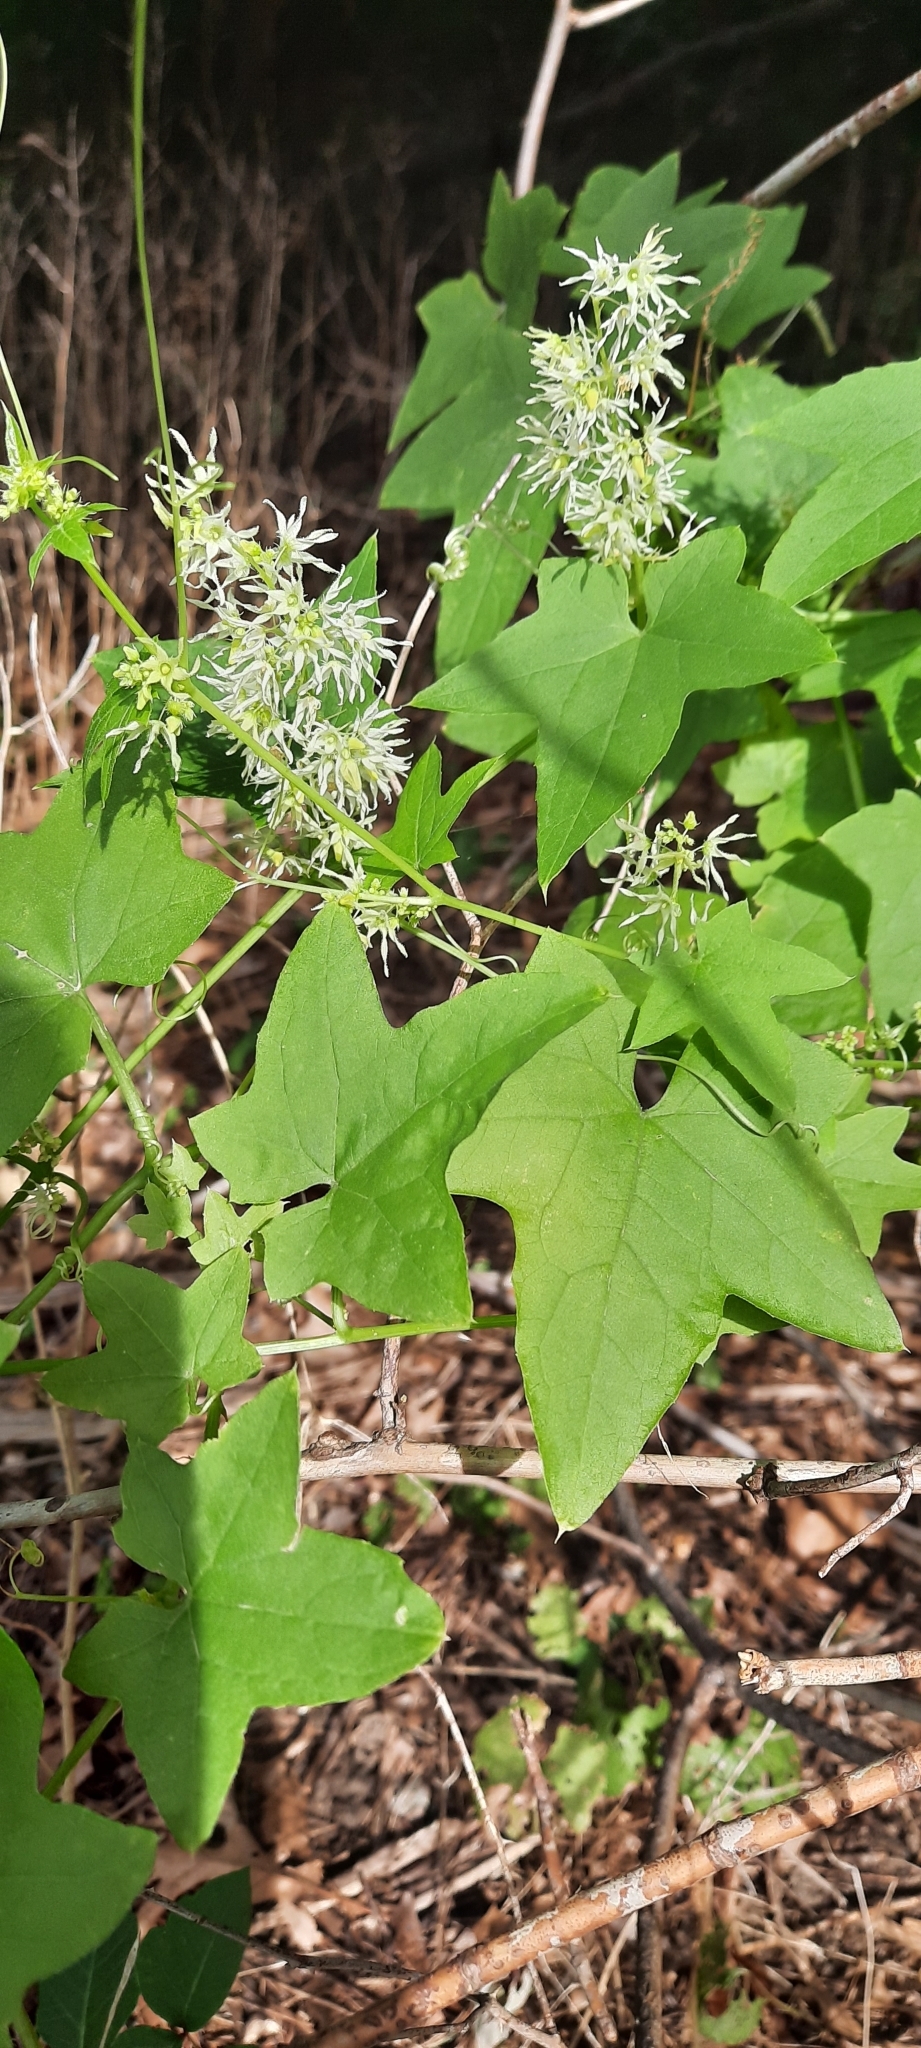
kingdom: Plantae
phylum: Tracheophyta
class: Magnoliopsida
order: Cucurbitales
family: Cucurbitaceae
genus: Echinocystis
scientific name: Echinocystis lobata
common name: Wild cucumber
